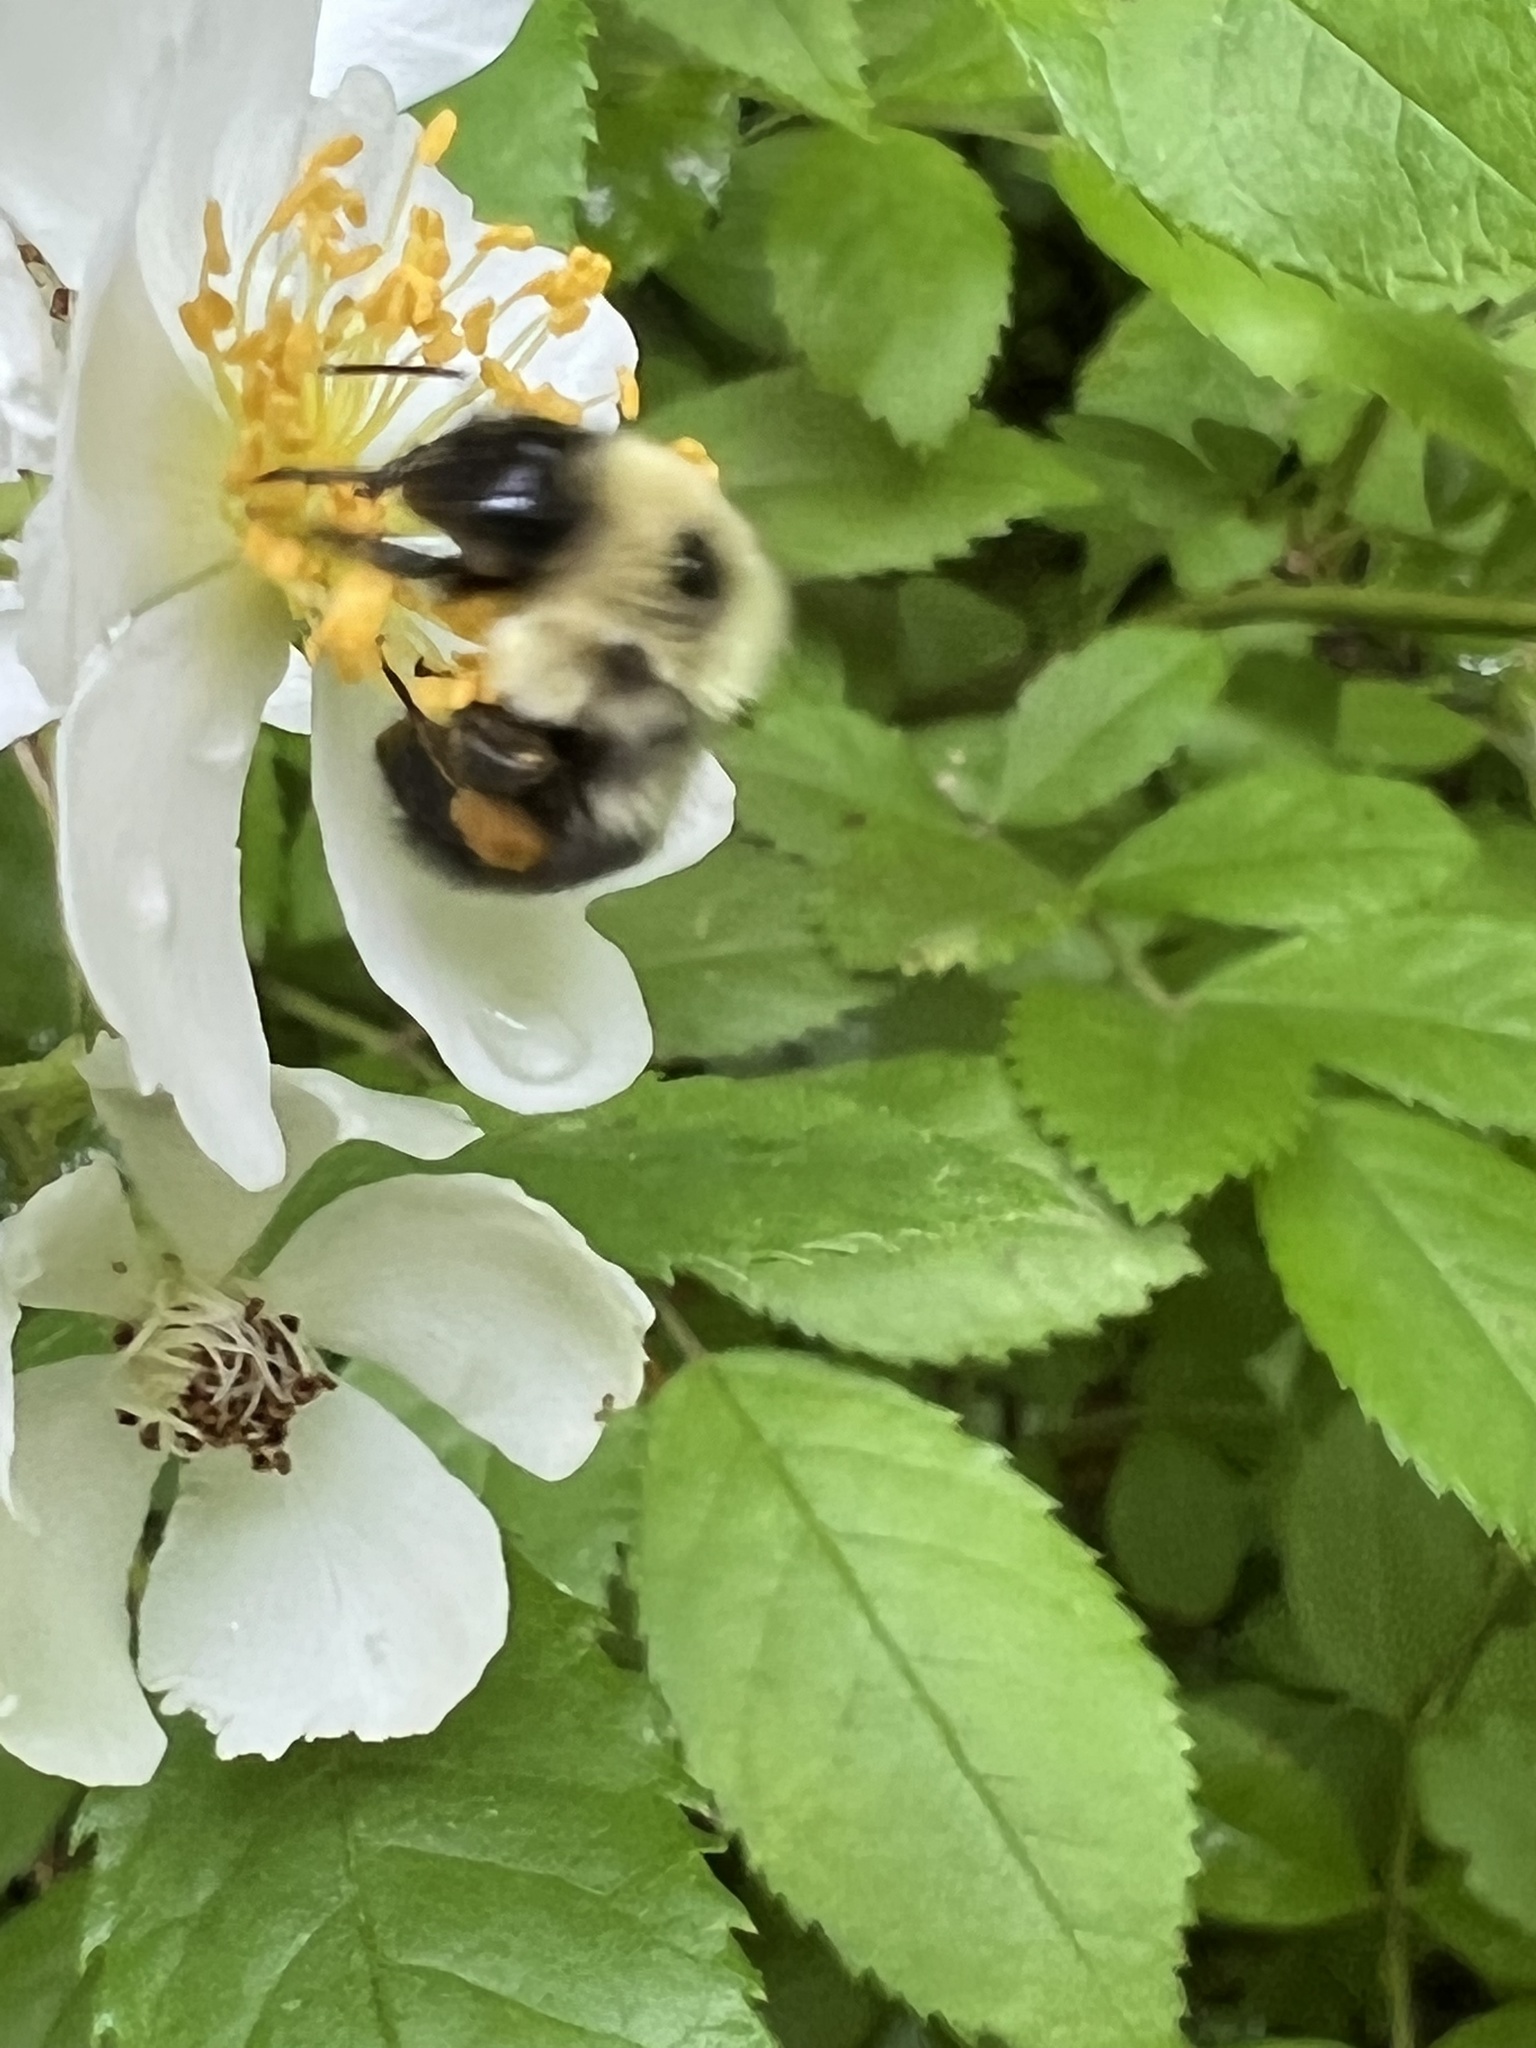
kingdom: Animalia
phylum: Arthropoda
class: Insecta
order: Hymenoptera
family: Apidae
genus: Bombus
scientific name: Bombus bimaculatus
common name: Two-spotted bumble bee
